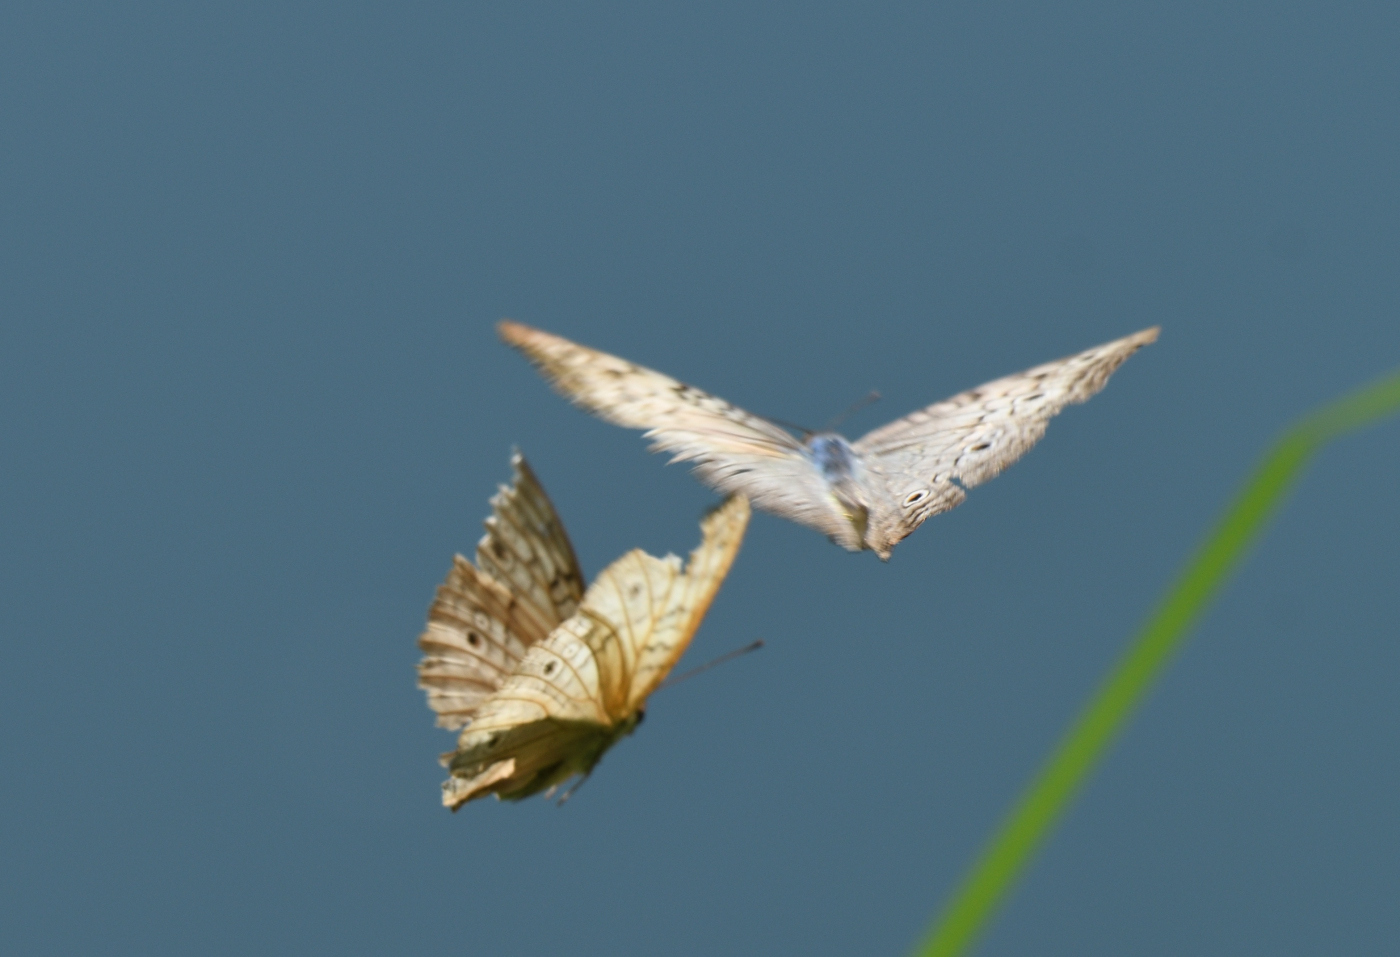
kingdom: Animalia
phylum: Arthropoda
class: Insecta
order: Lepidoptera
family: Nymphalidae
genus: Junonia
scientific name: Junonia atlites
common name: Grey pansy
